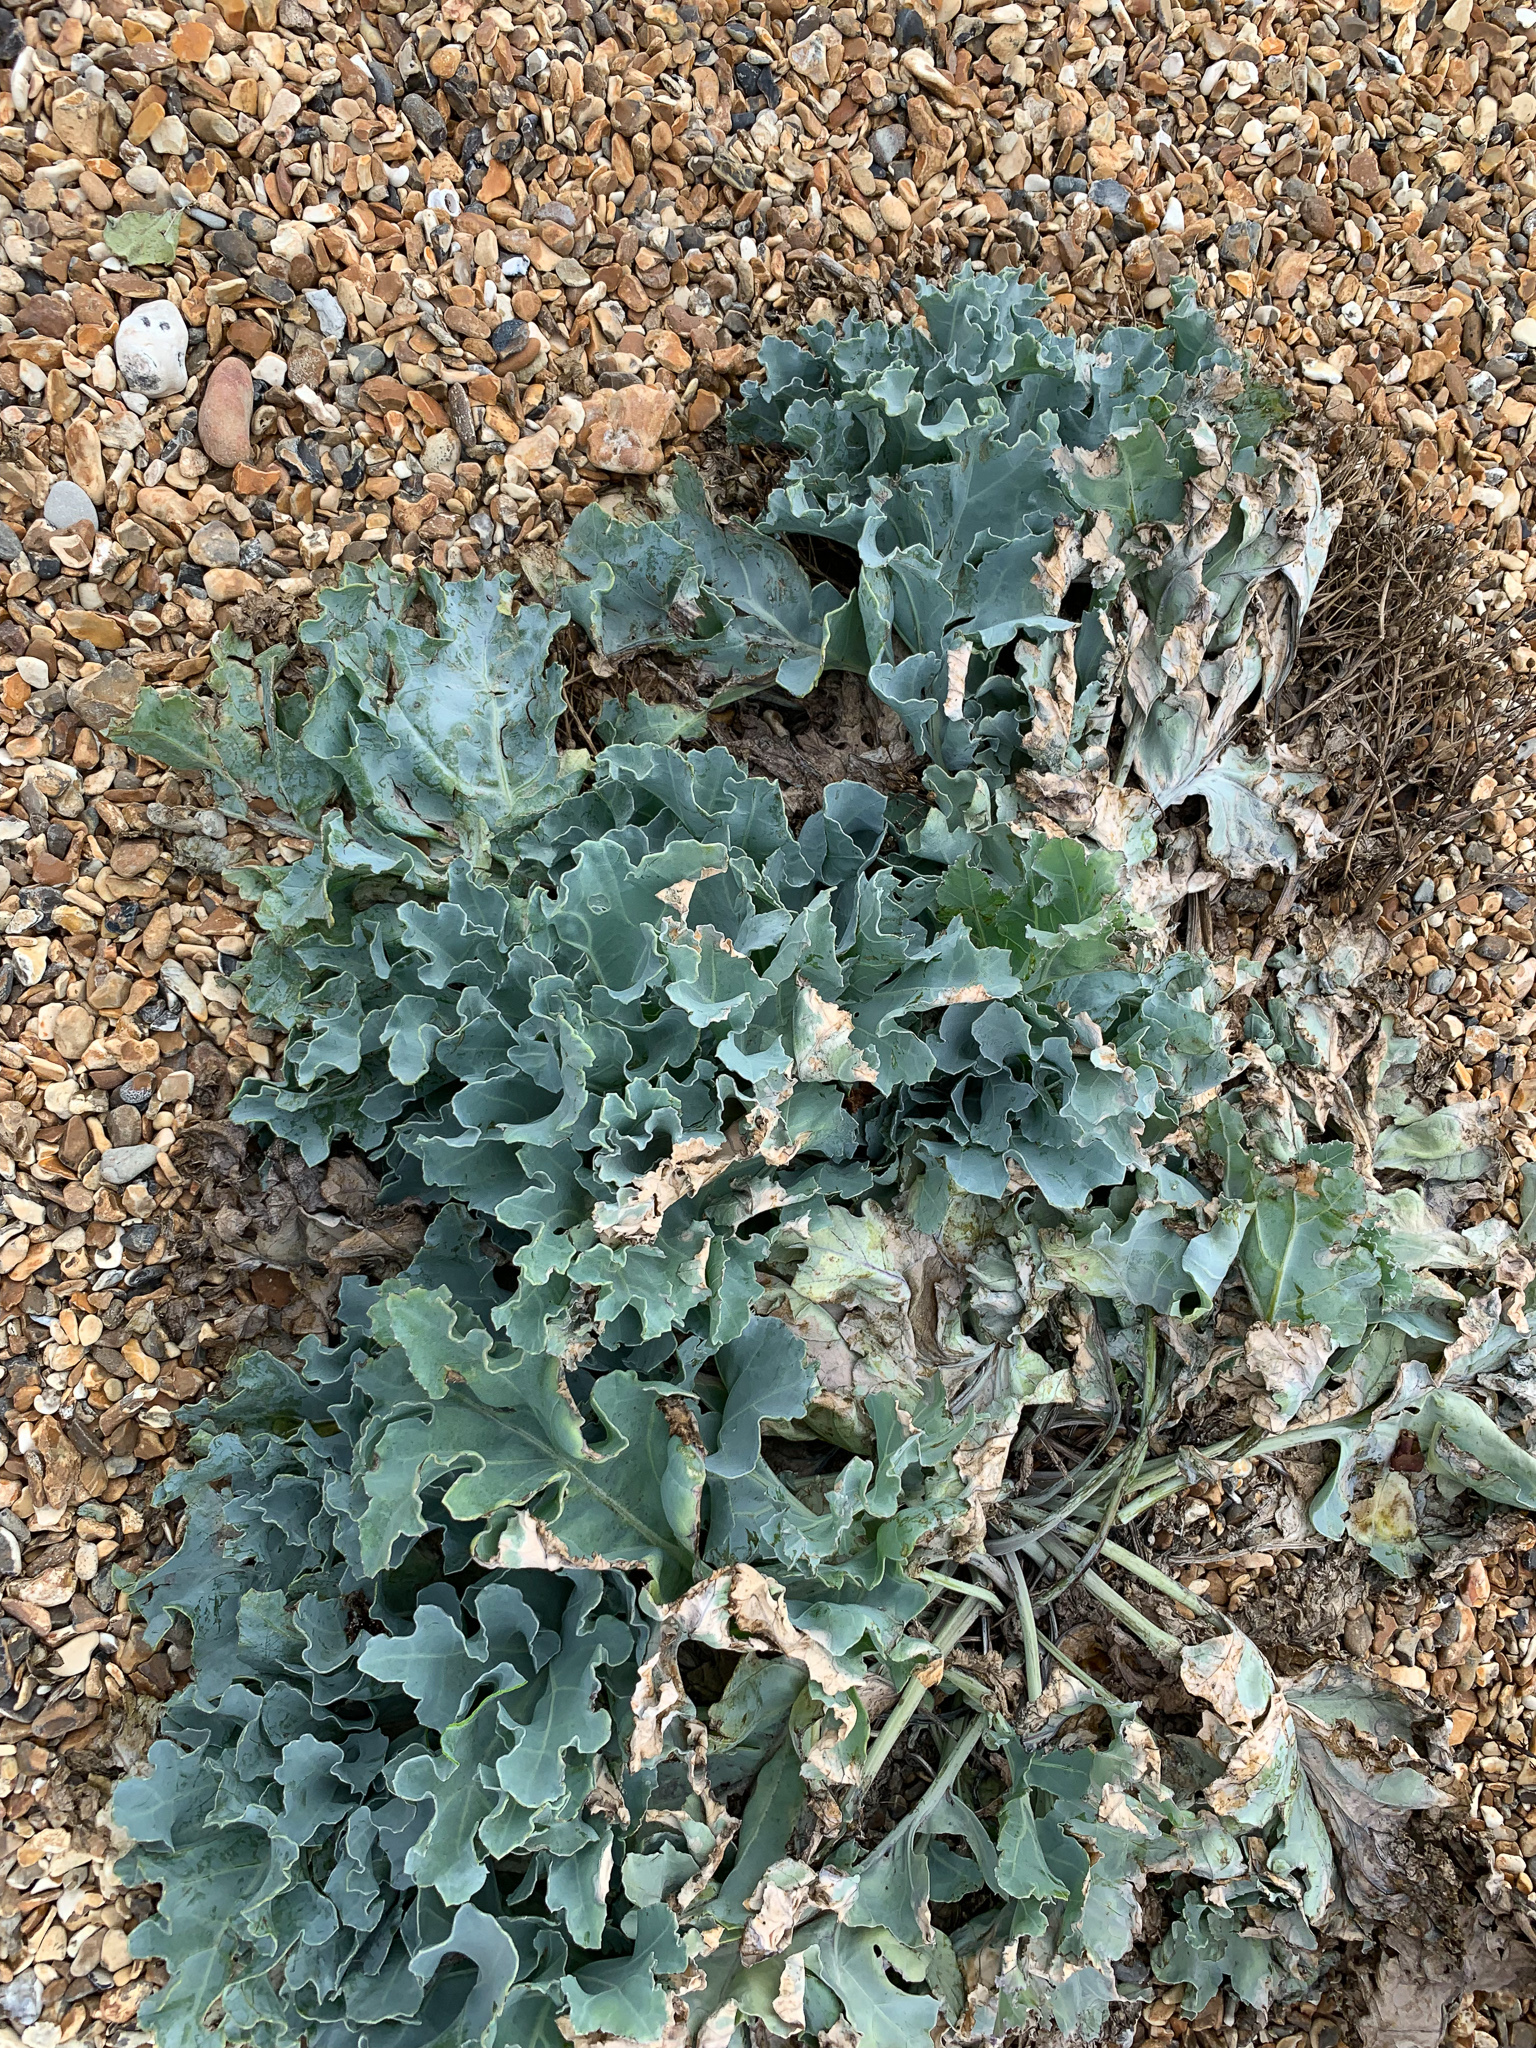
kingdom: Plantae
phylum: Tracheophyta
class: Magnoliopsida
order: Brassicales
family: Brassicaceae
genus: Crambe
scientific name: Crambe maritima
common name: Sea-kale
